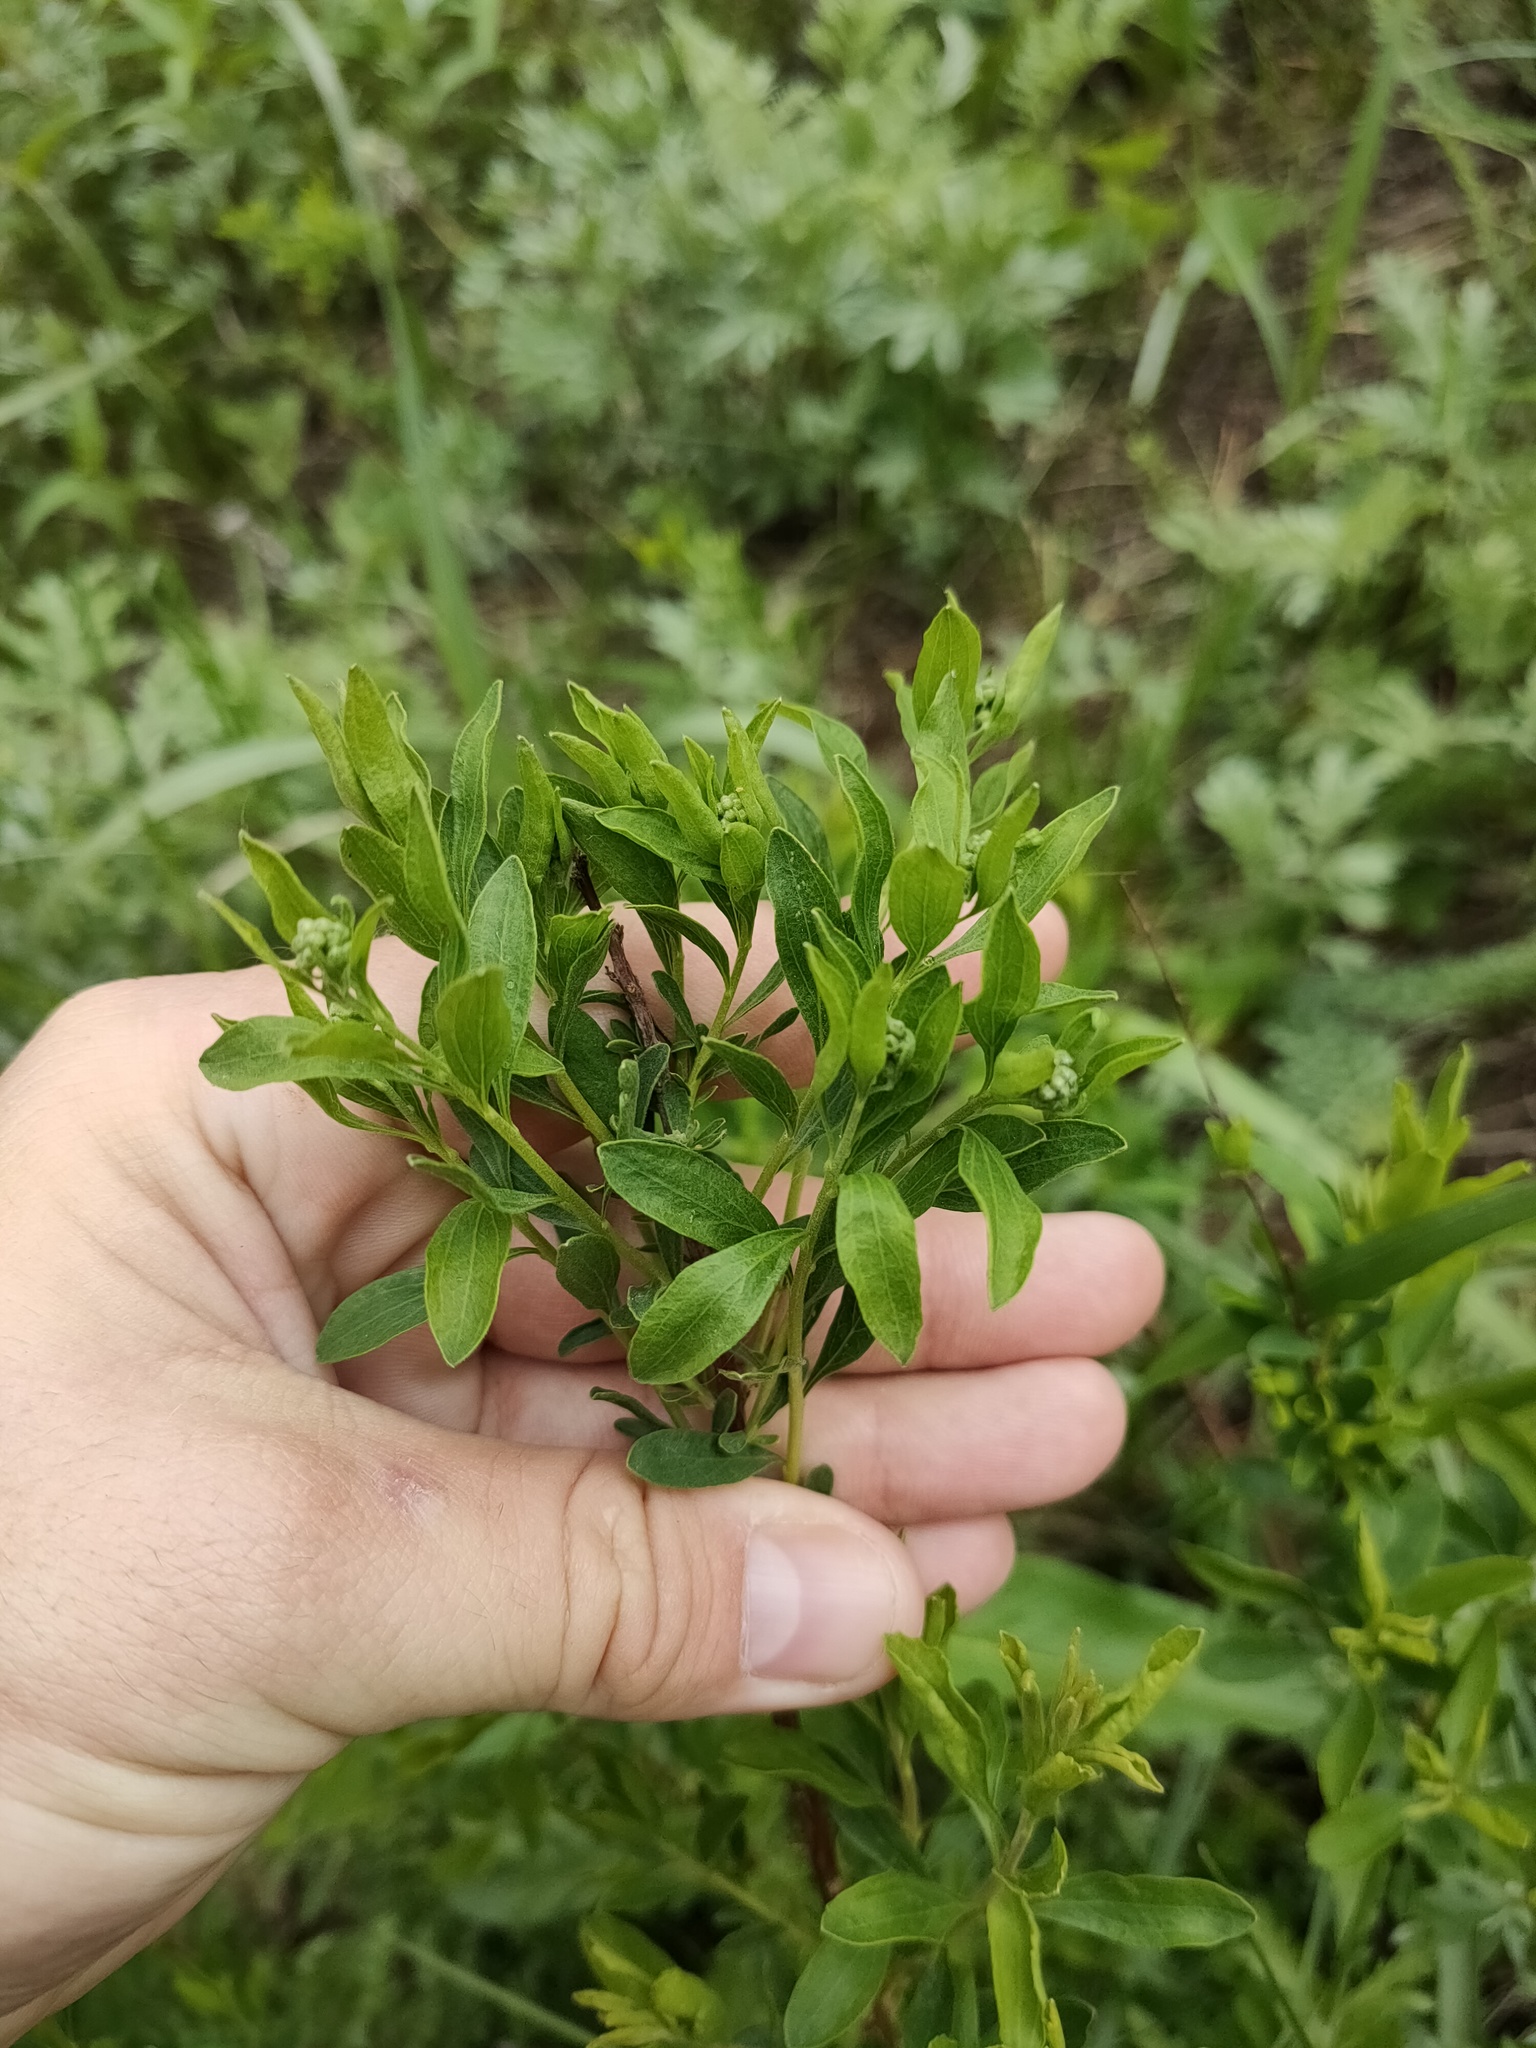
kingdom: Plantae
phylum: Tracheophyta
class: Magnoliopsida
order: Rosales
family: Rosaceae
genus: Spiraea
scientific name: Spiraea crenata
